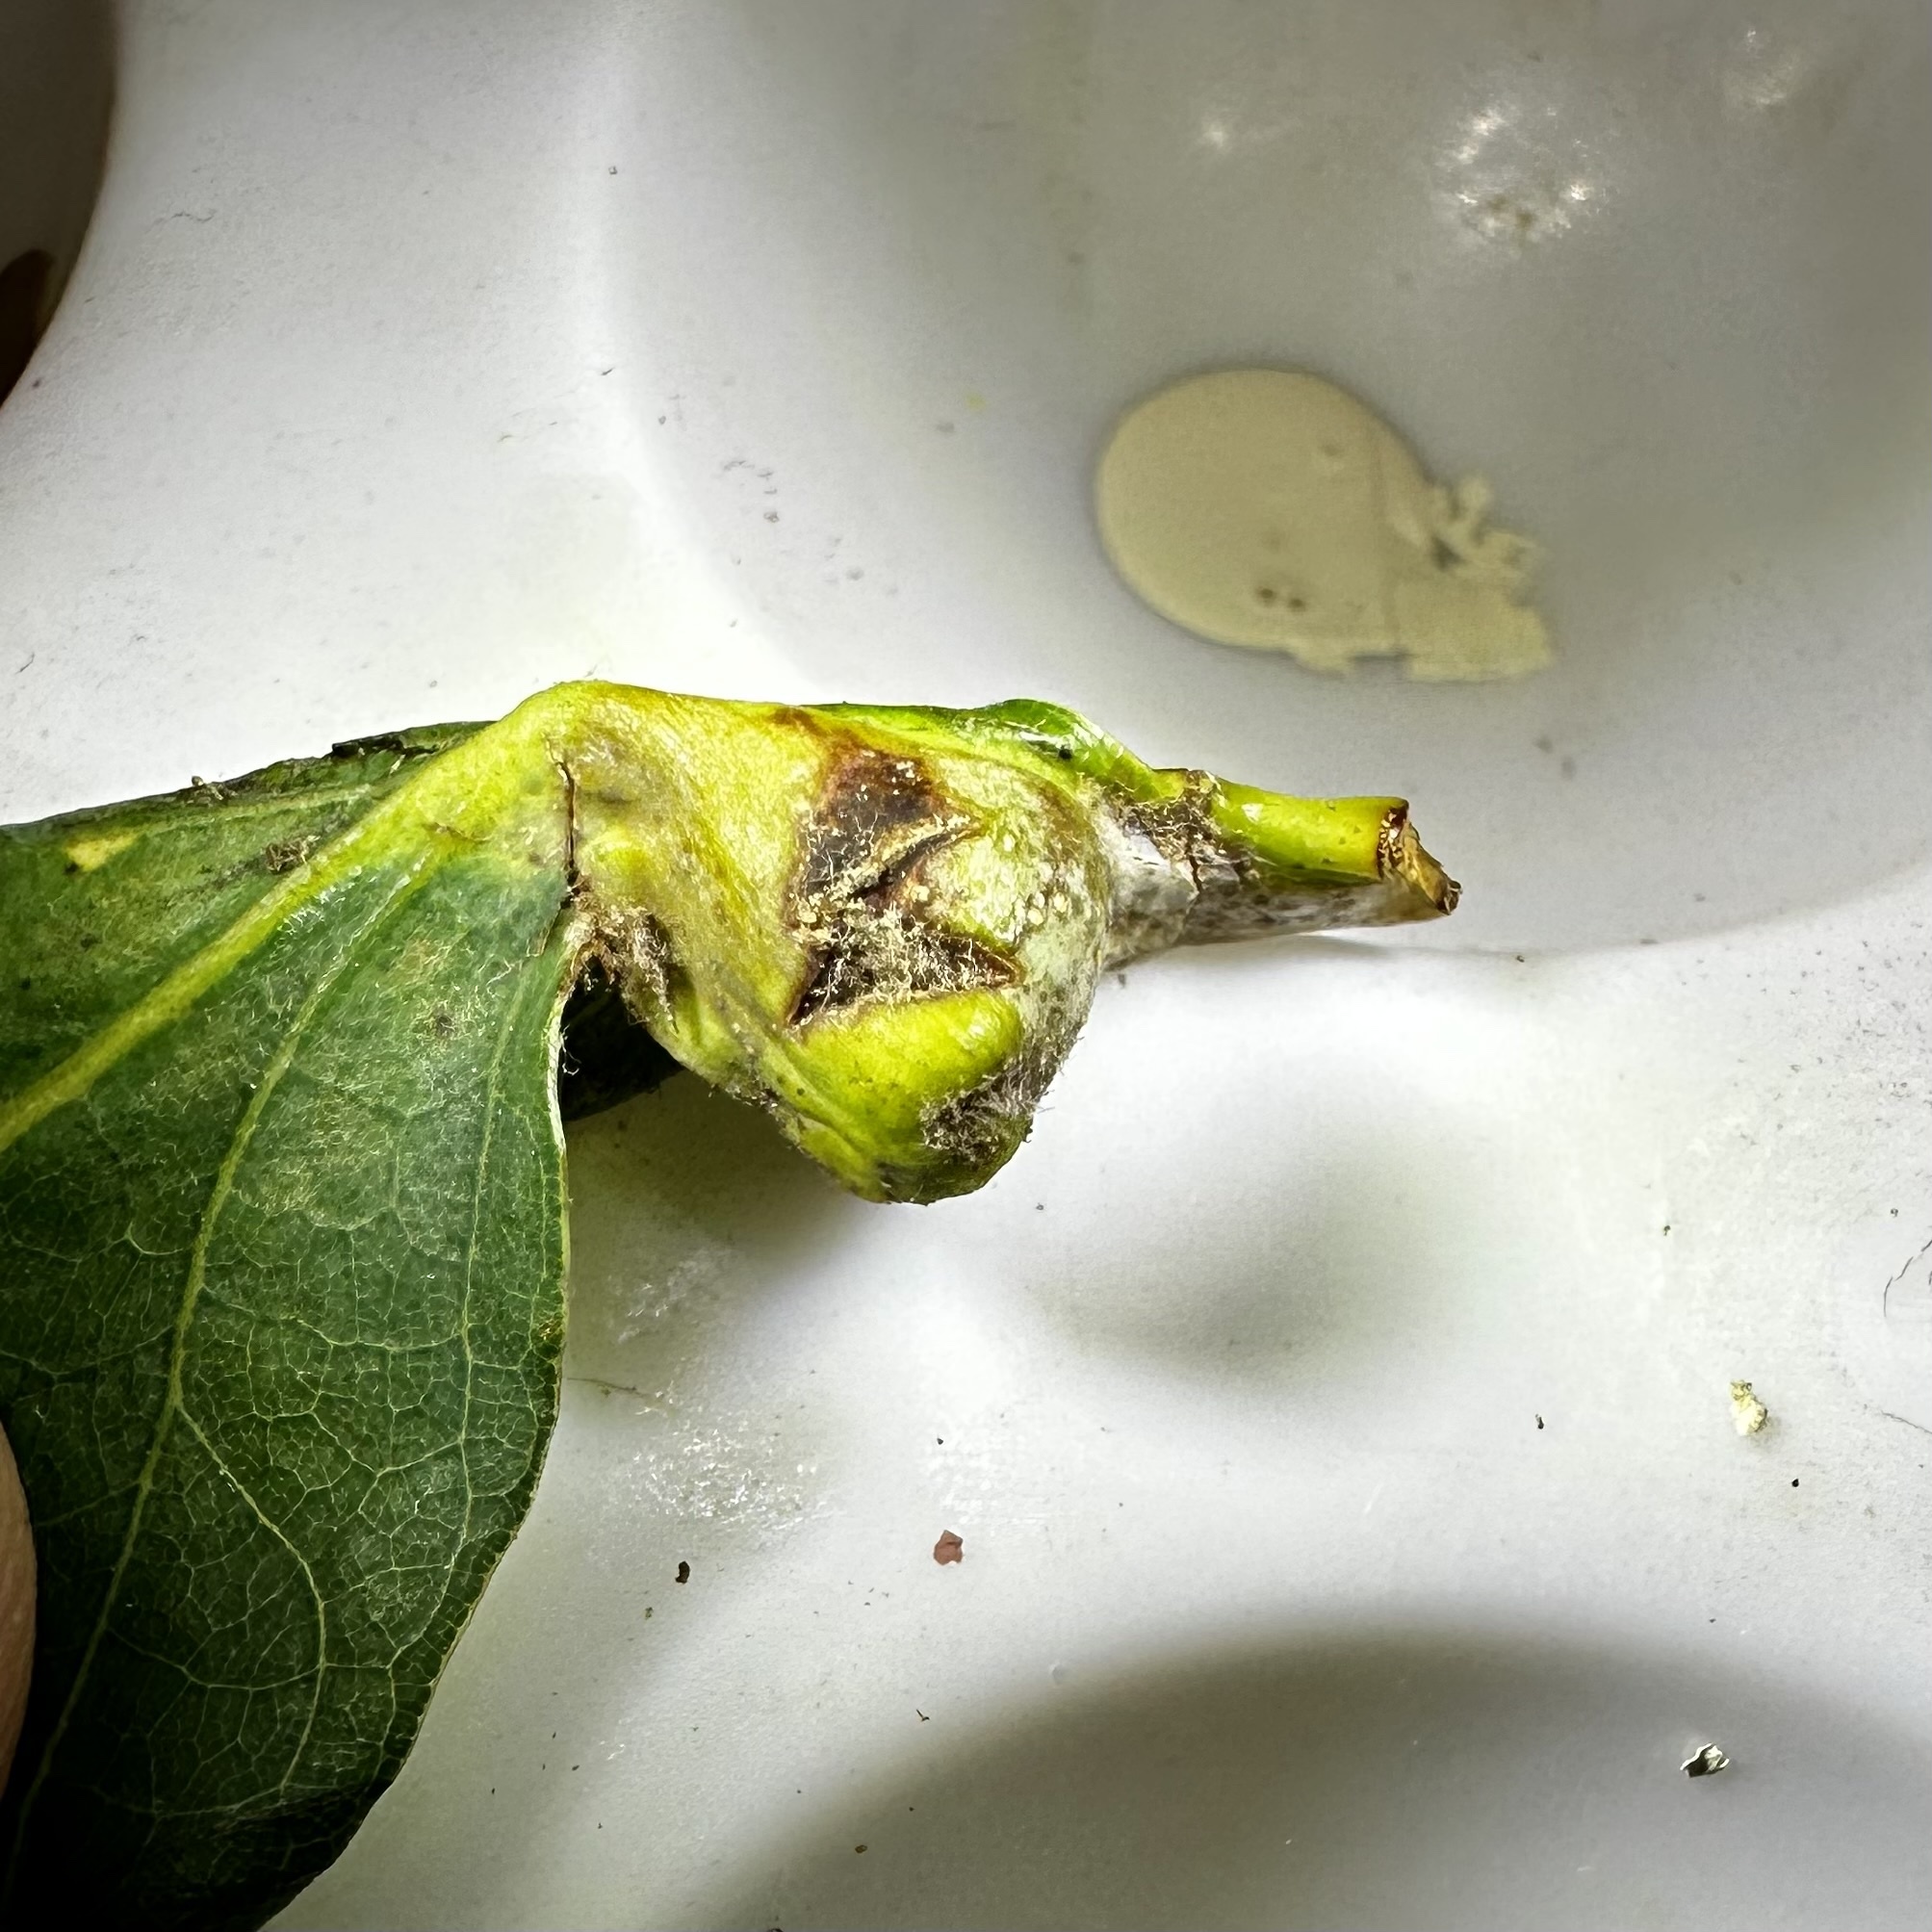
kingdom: Animalia
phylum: Arthropoda
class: Insecta
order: Hymenoptera
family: Cynipidae
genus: Andricus
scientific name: Andricus
